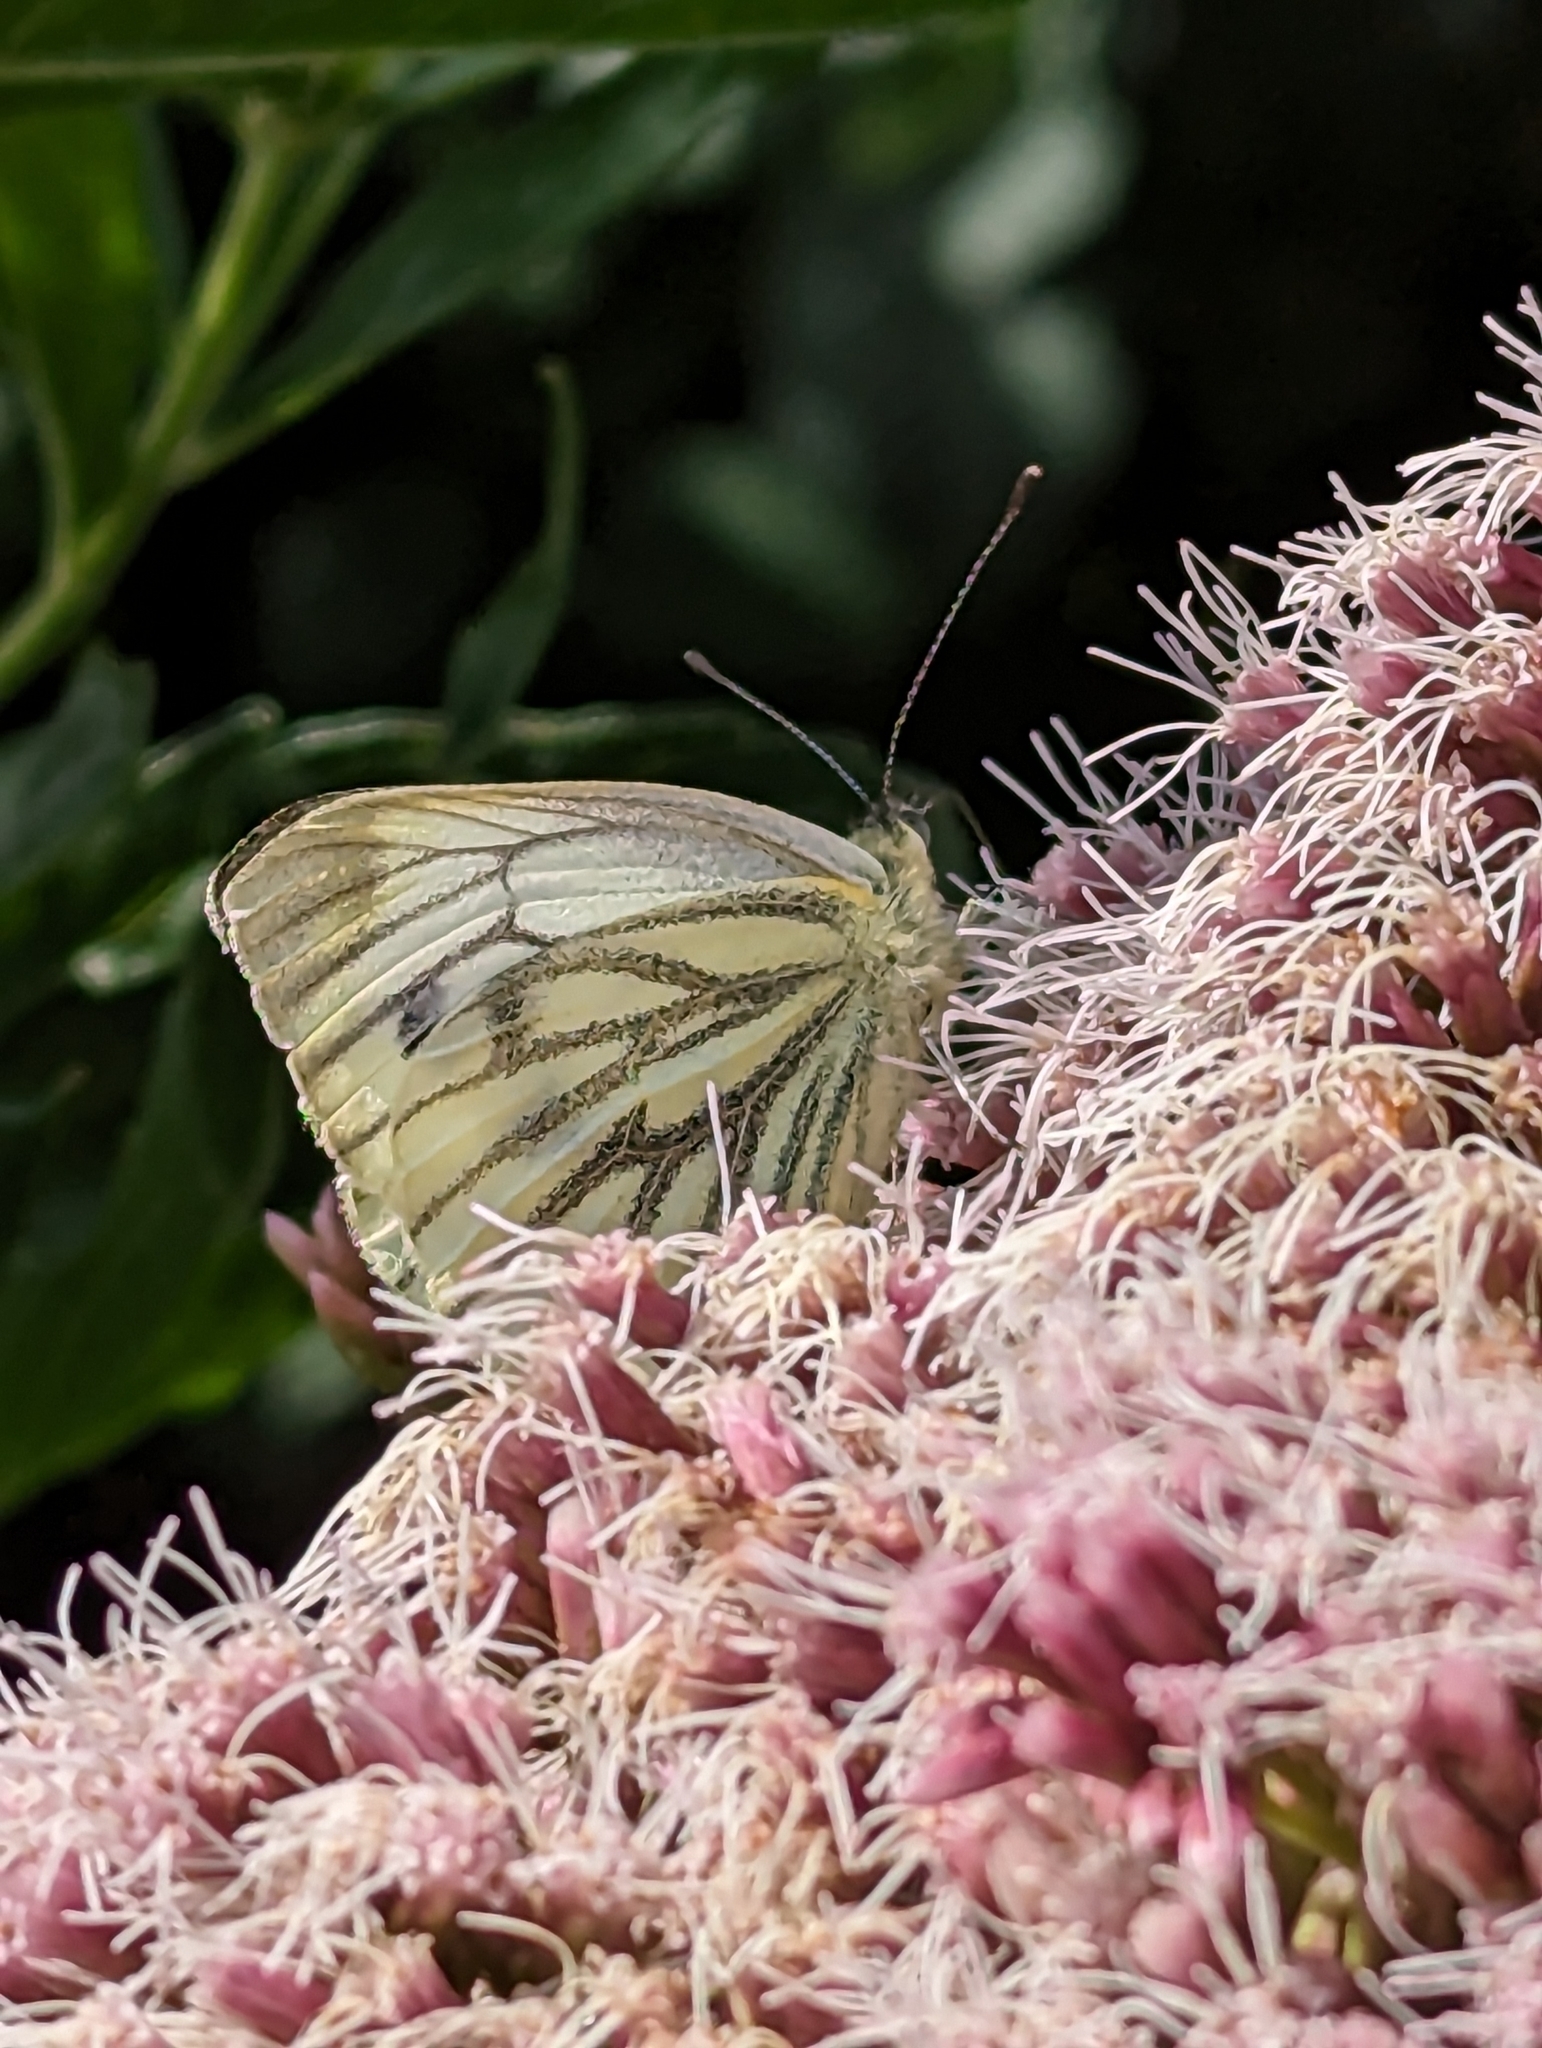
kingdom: Animalia
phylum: Arthropoda
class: Insecta
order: Lepidoptera
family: Pieridae
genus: Pieris
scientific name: Pieris napi
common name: Green-veined white
